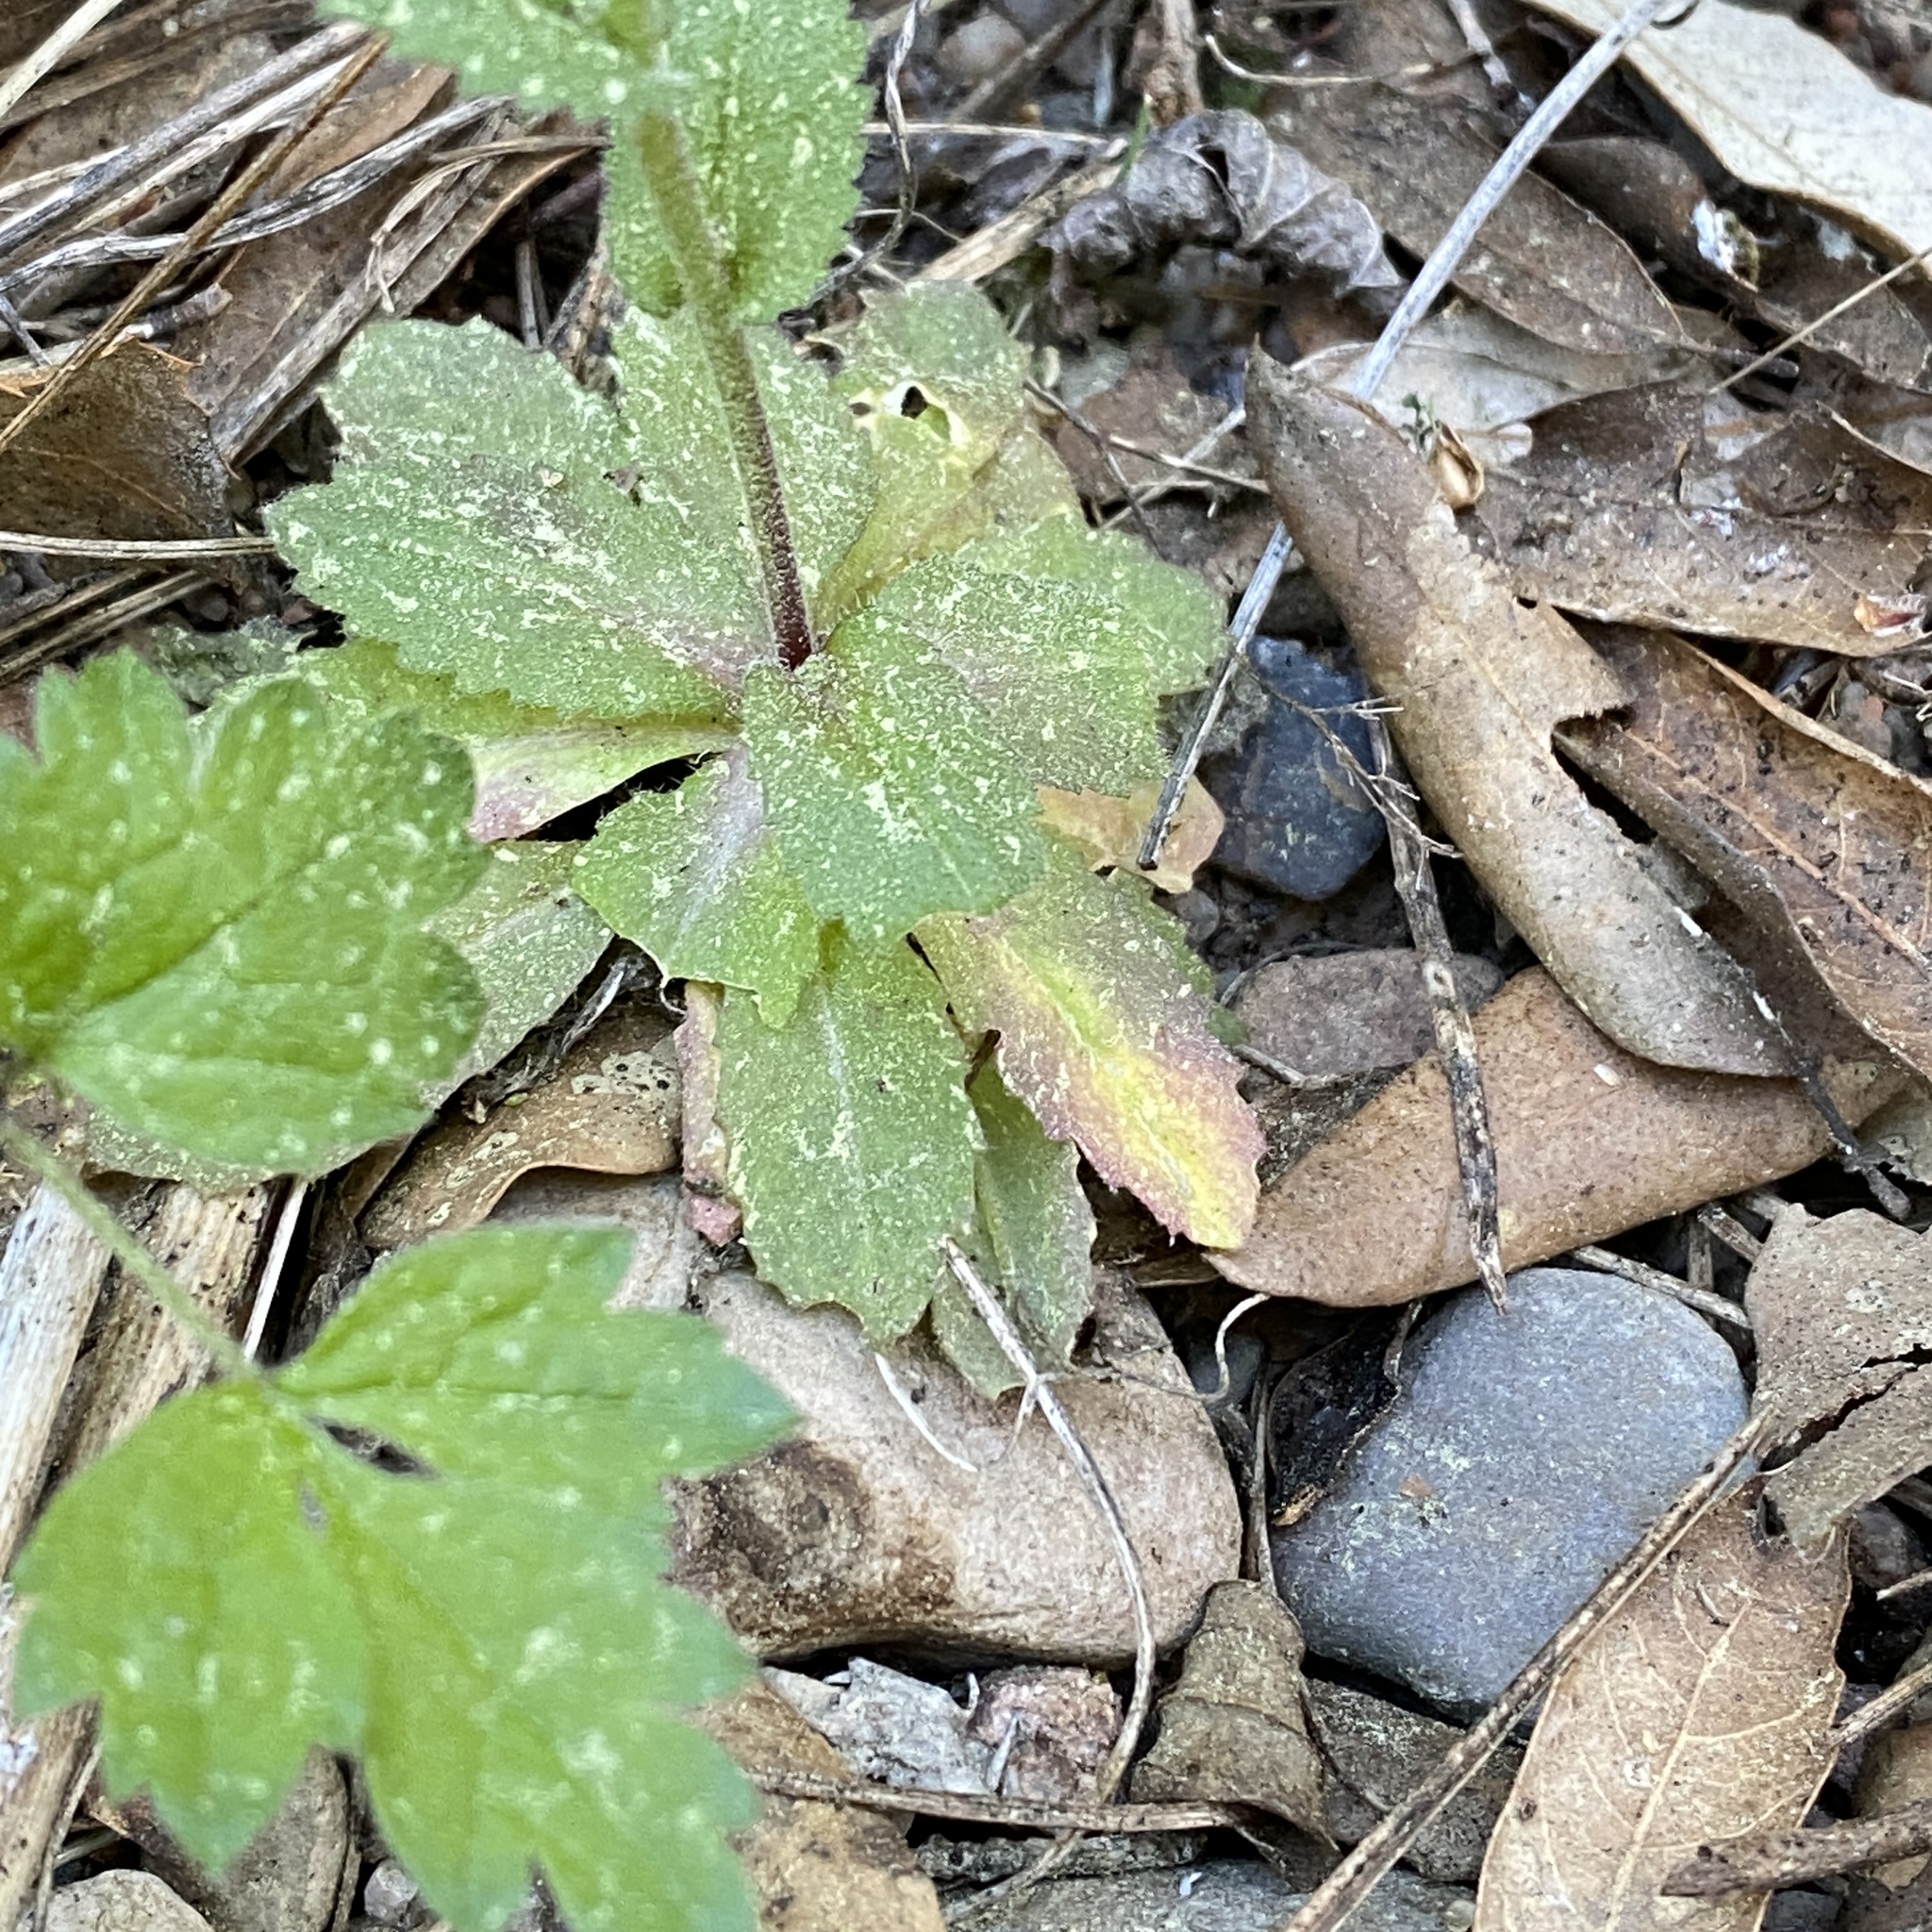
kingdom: Plantae
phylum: Tracheophyta
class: Magnoliopsida
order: Brassicales
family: Brassicaceae
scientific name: Brassicaceae
